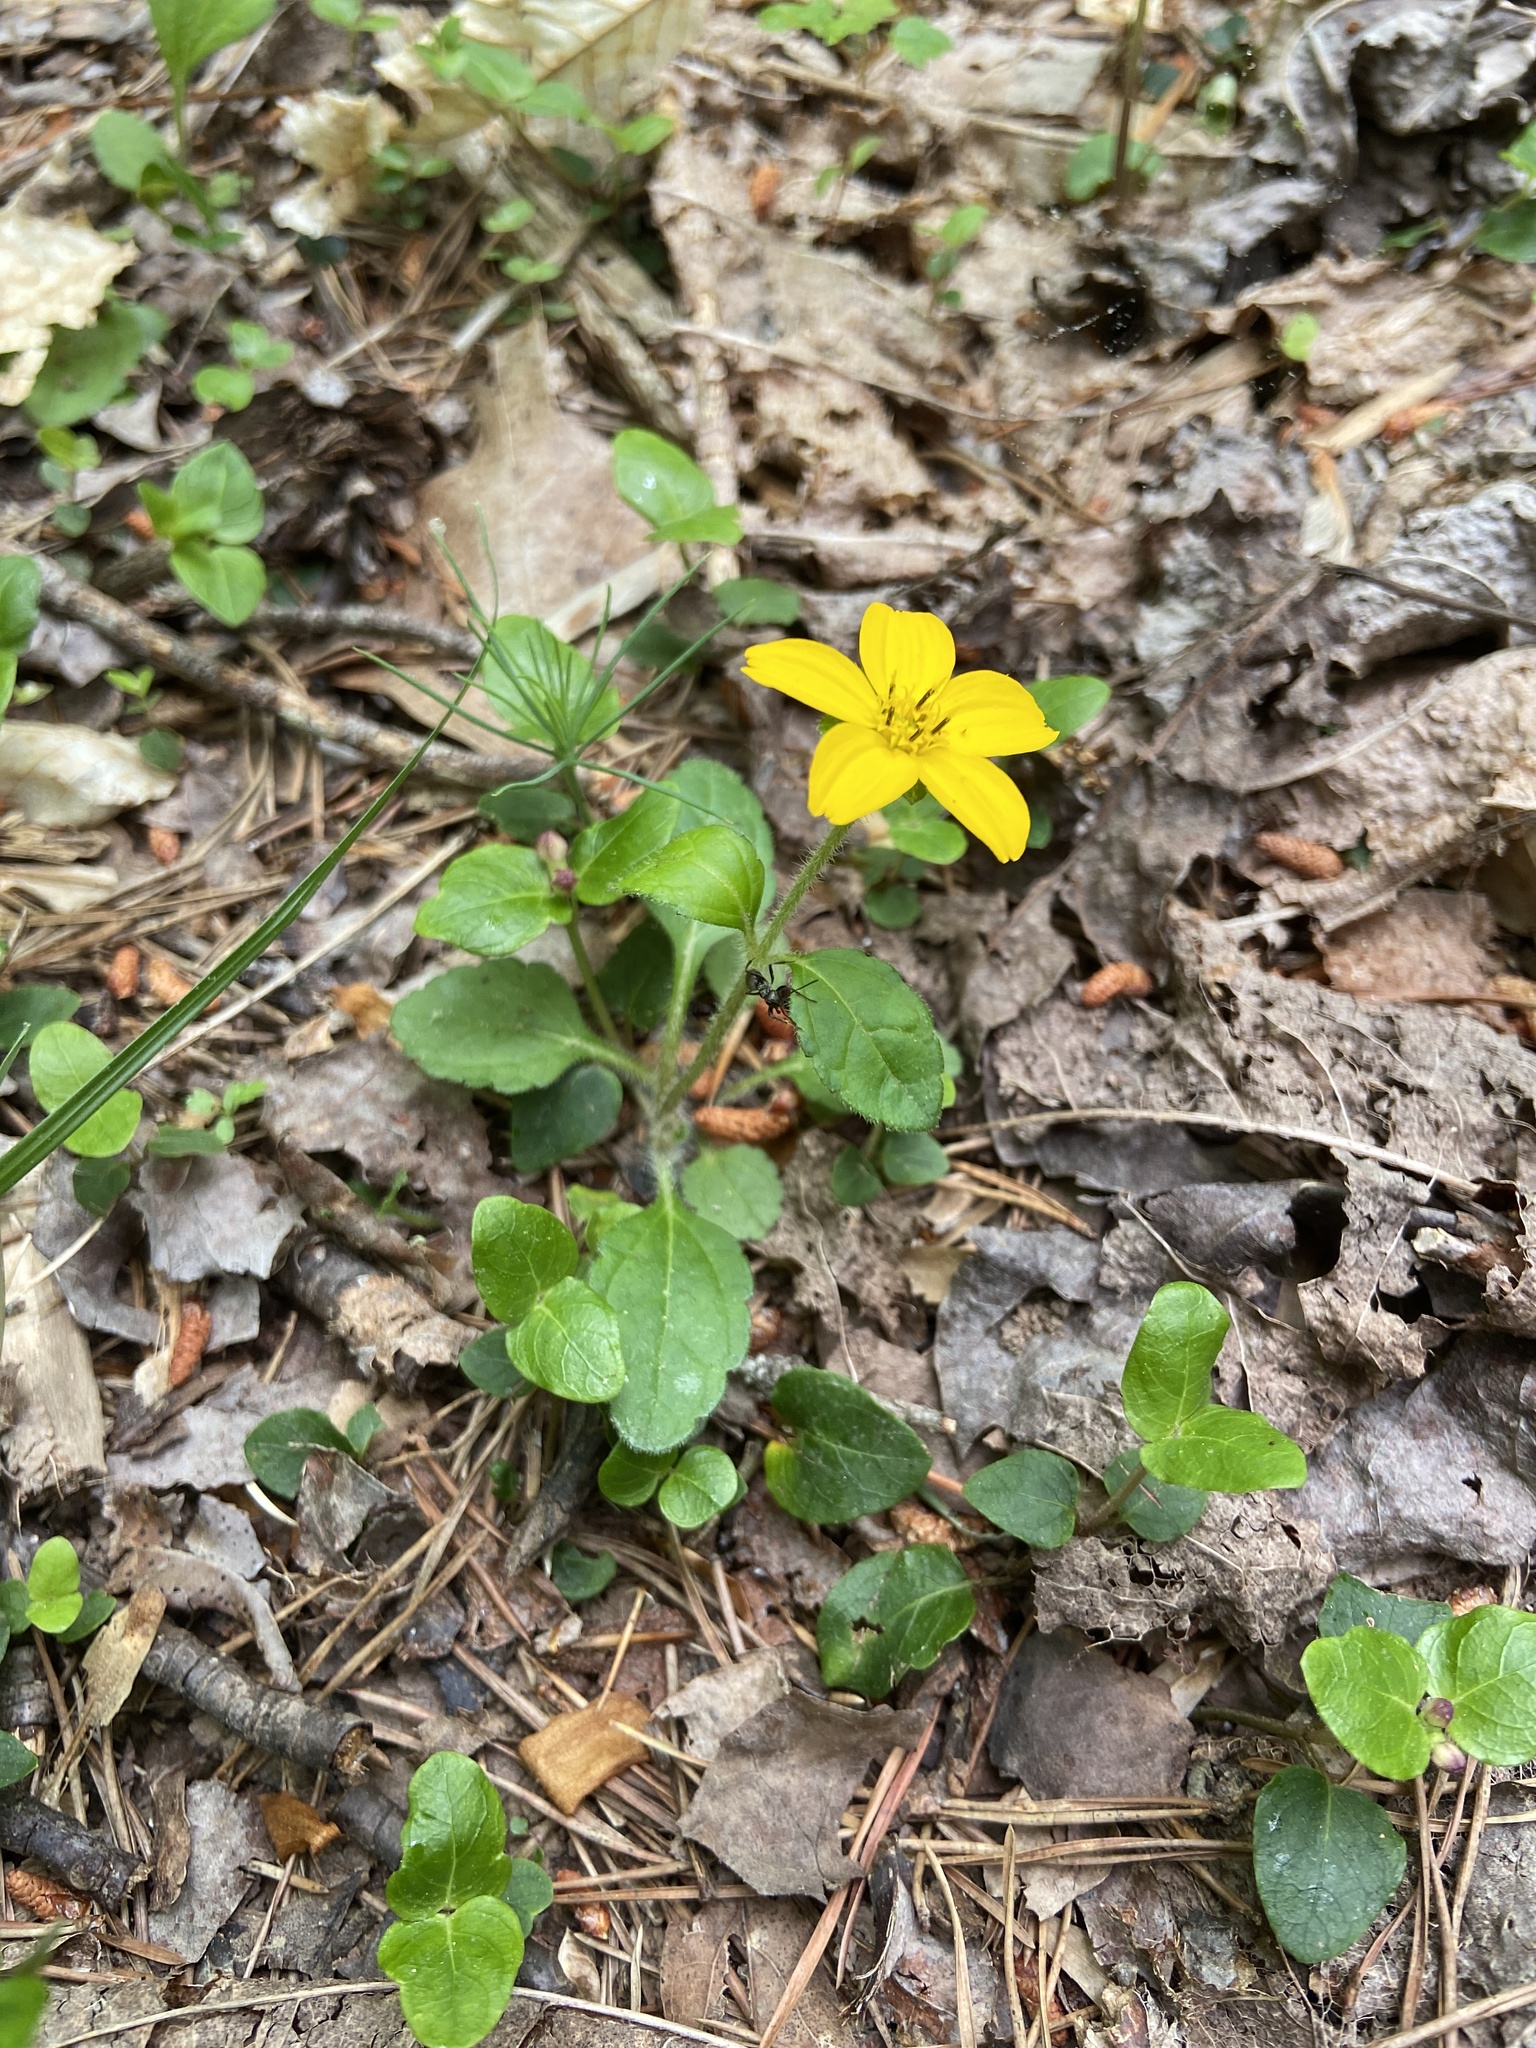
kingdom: Plantae
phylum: Tracheophyta
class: Magnoliopsida
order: Asterales
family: Asteraceae
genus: Chrysogonum
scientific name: Chrysogonum virginianum
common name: Golden-knee
